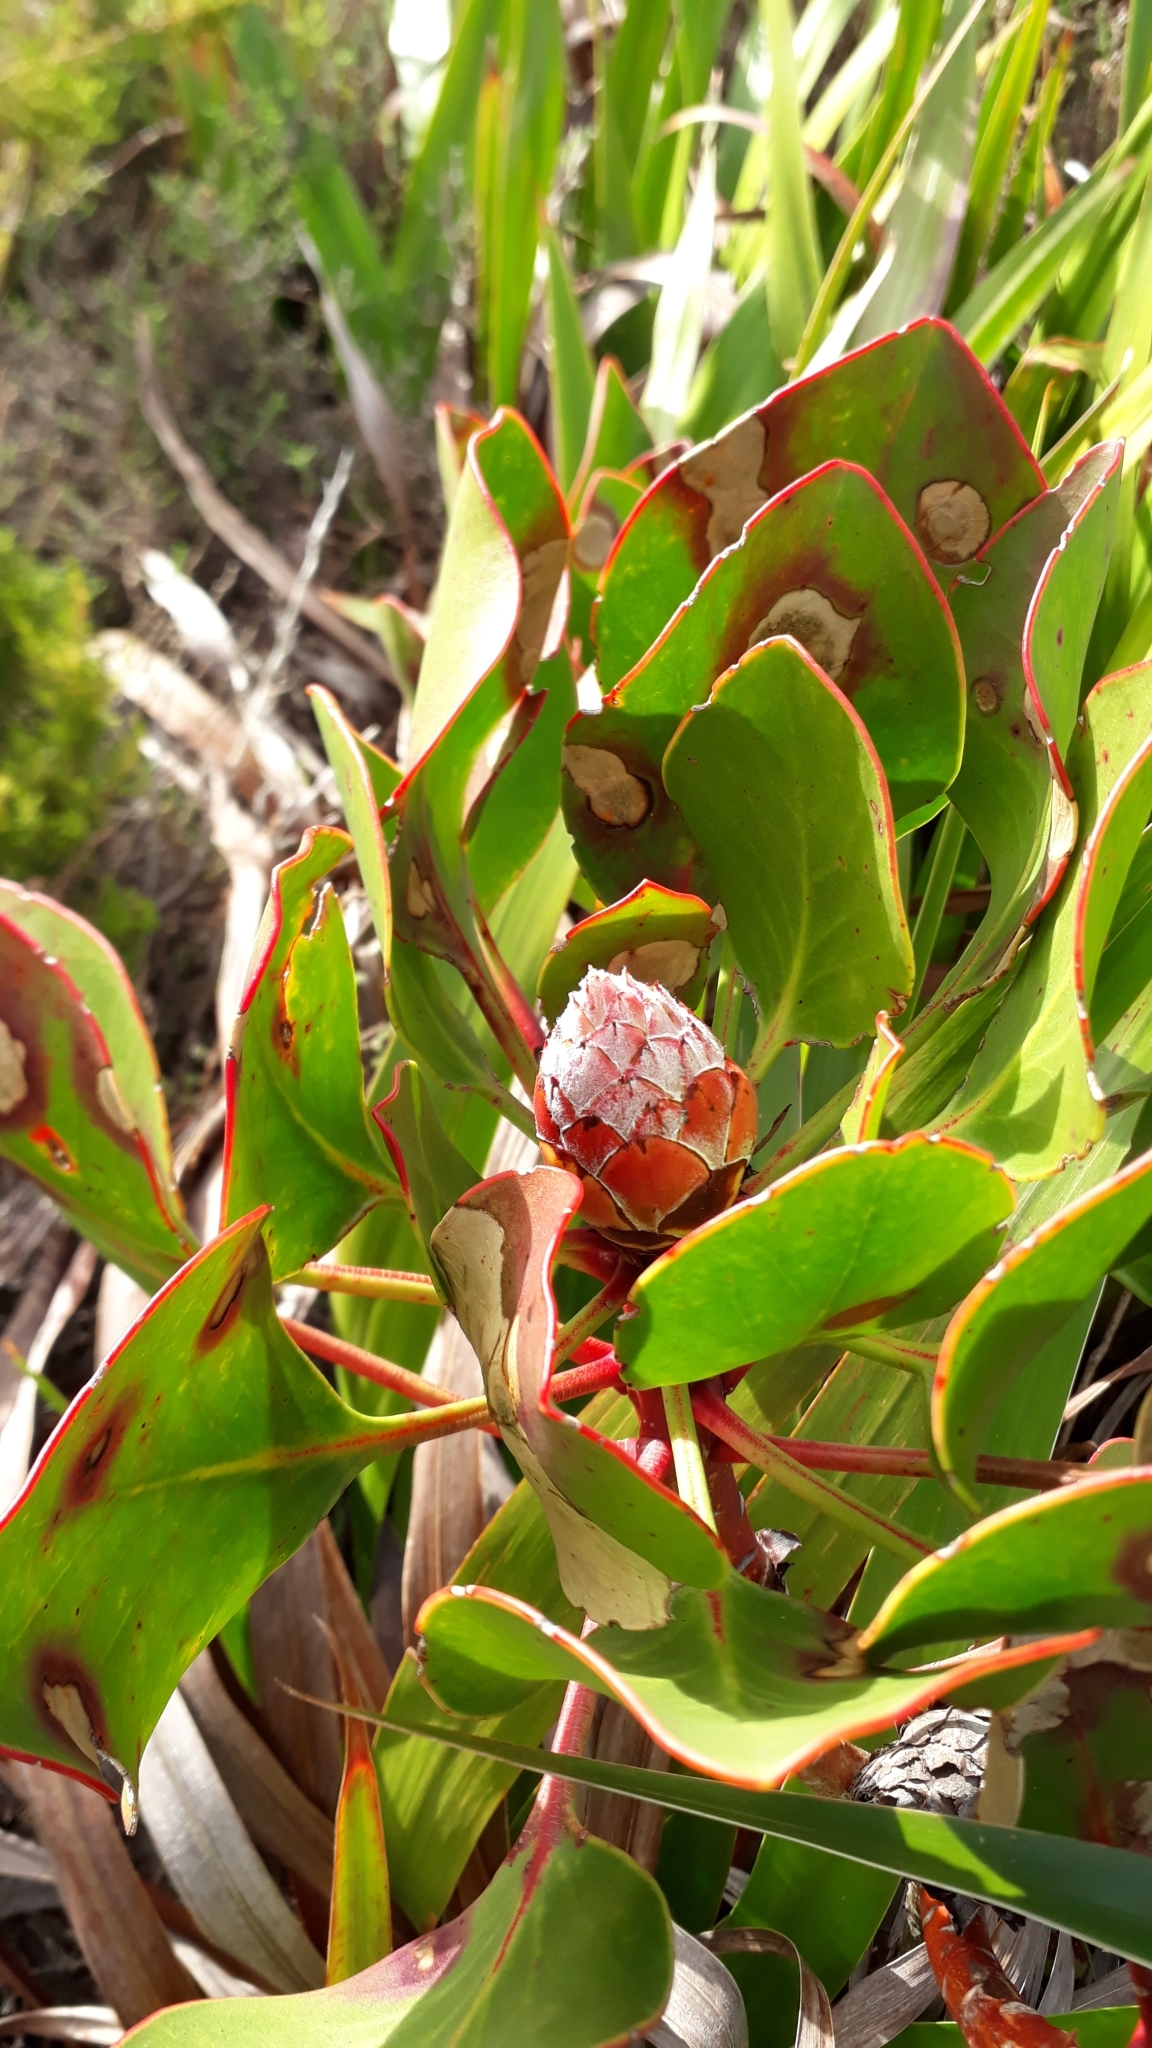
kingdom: Plantae
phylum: Tracheophyta
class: Magnoliopsida
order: Proteales
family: Proteaceae
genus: Protea
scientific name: Protea cynaroides
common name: King protea
